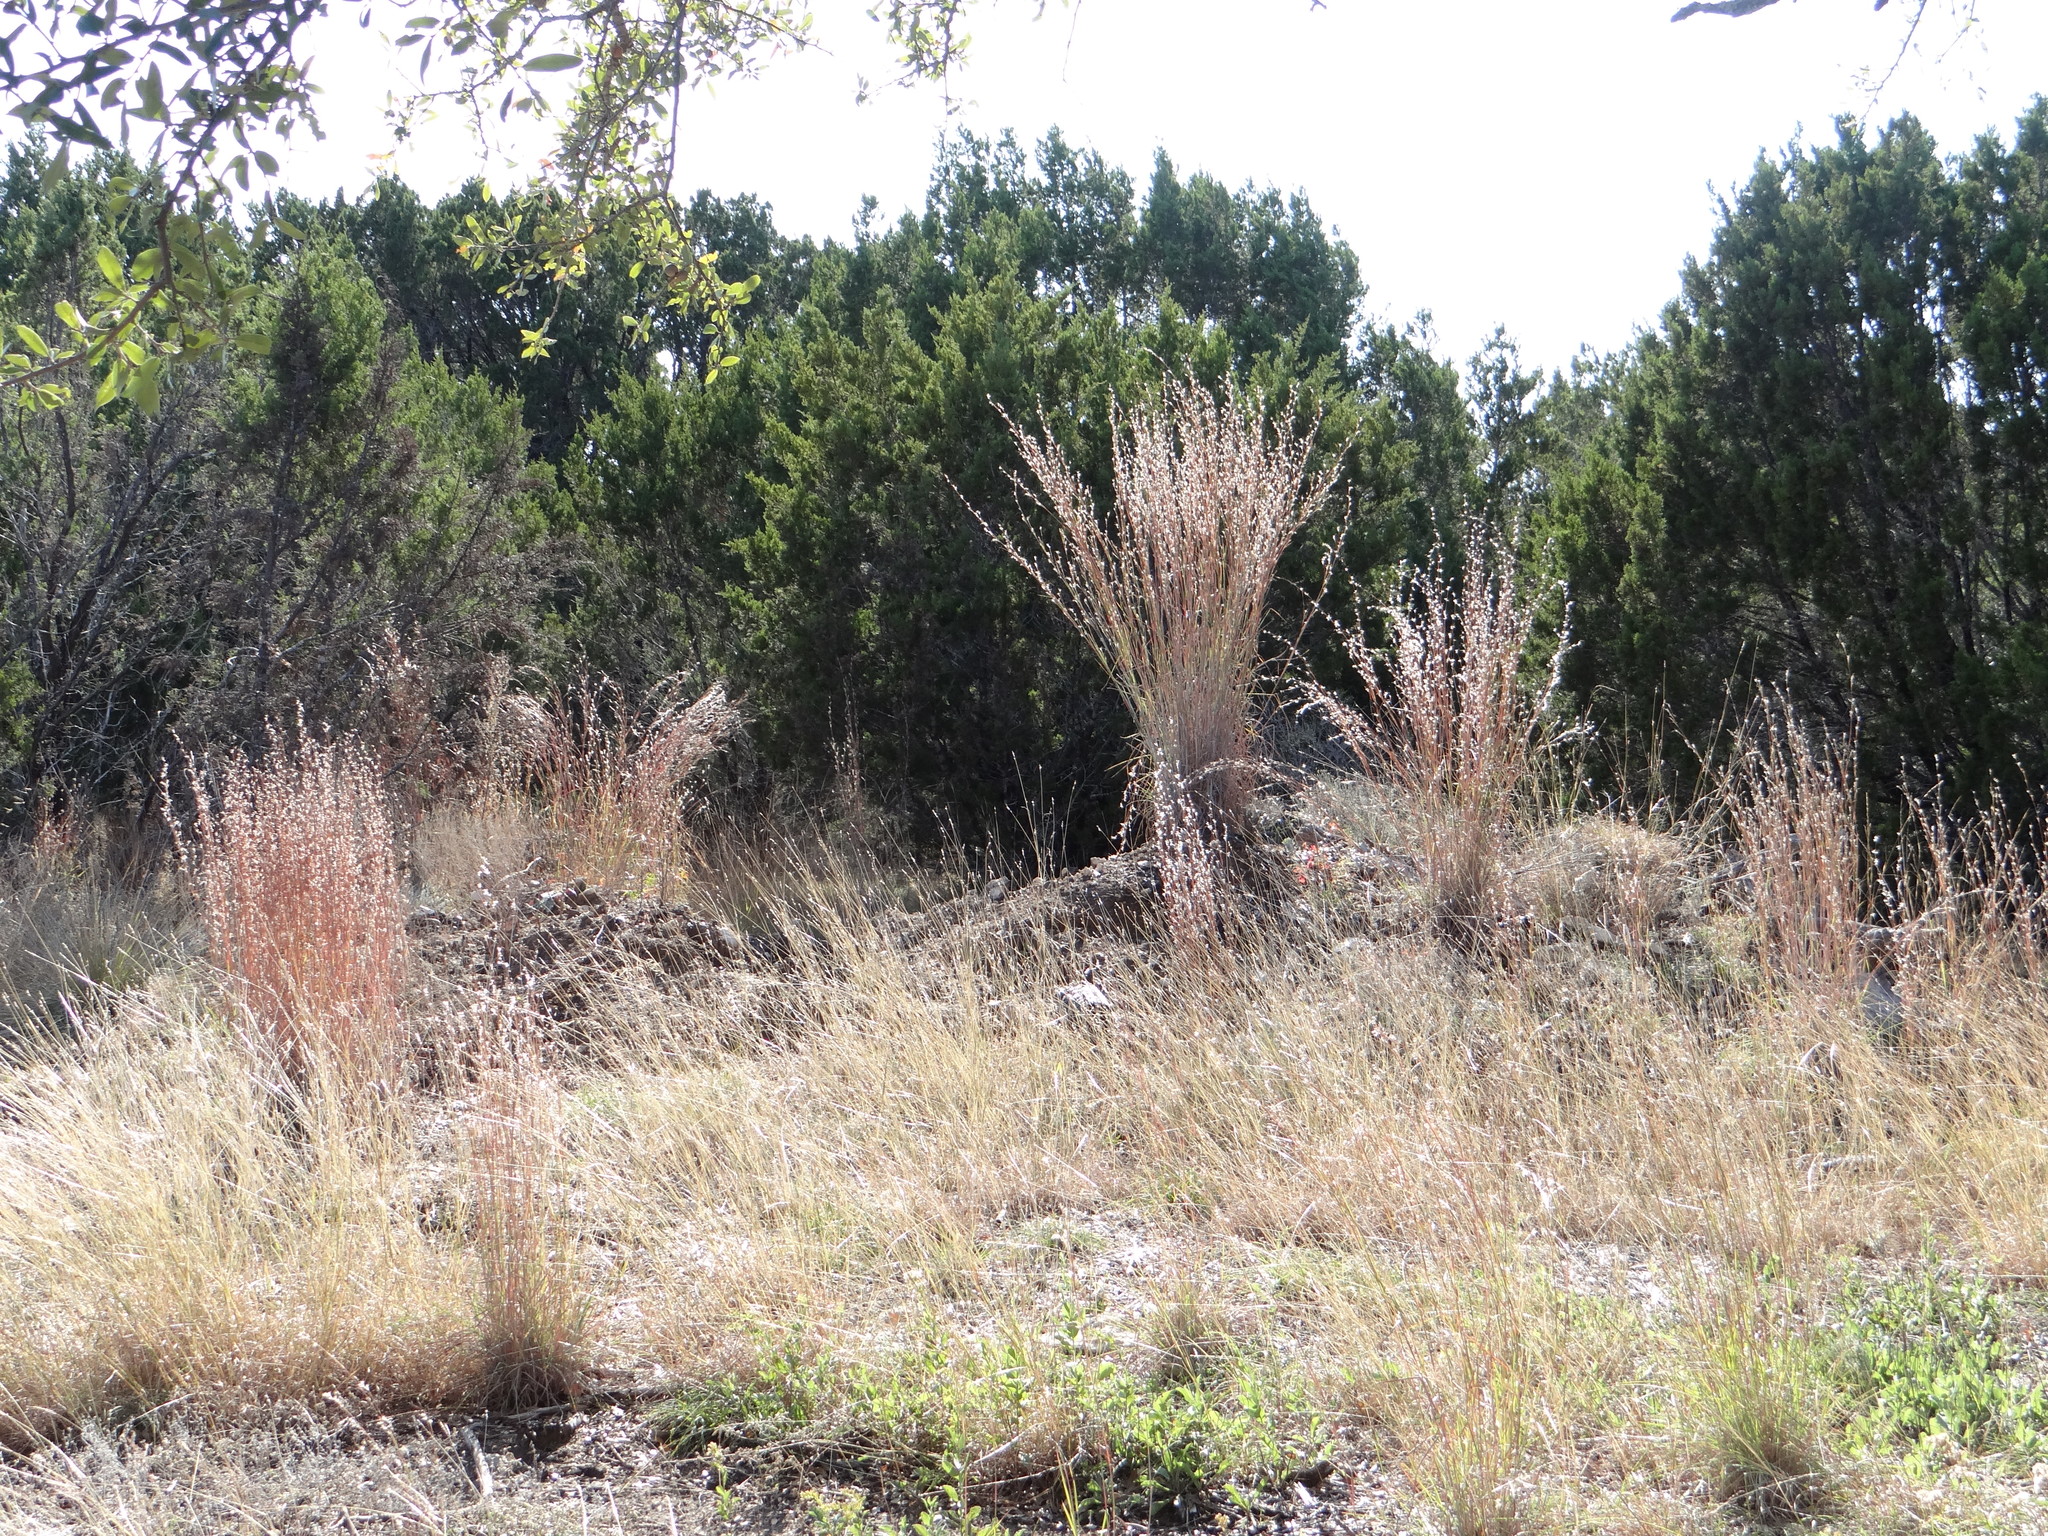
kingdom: Plantae
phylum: Tracheophyta
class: Liliopsida
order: Poales
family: Poaceae
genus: Schizachyrium
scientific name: Schizachyrium scoparium
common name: Little bluestem
